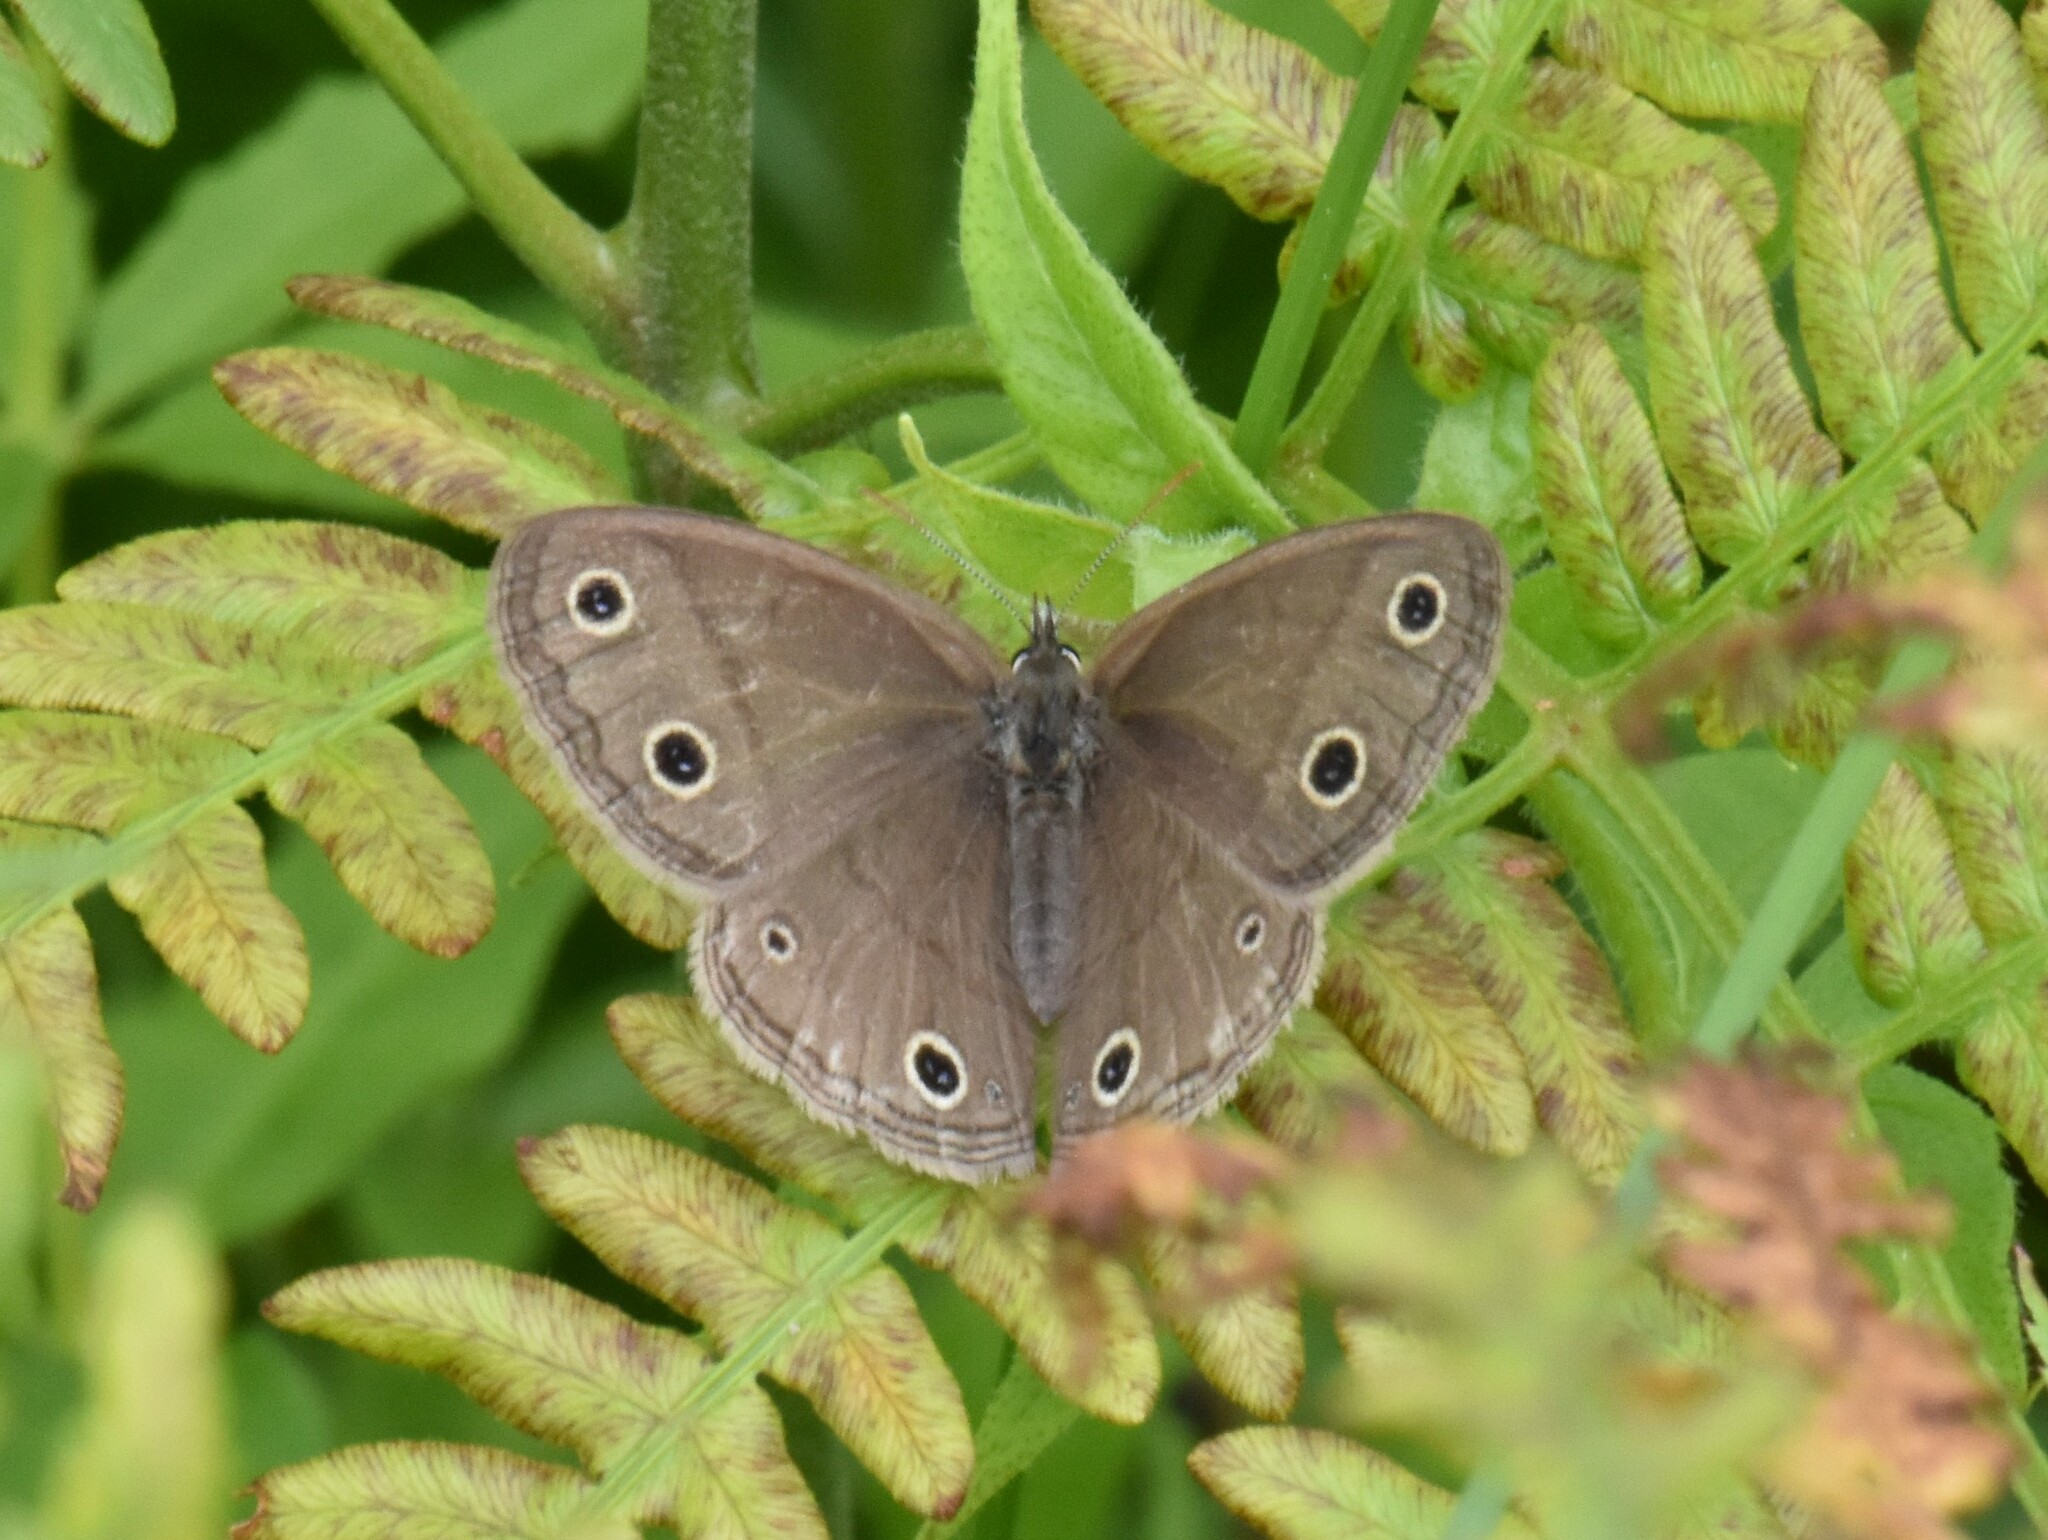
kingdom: Animalia
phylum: Arthropoda
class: Insecta
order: Lepidoptera
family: Nymphalidae
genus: Euptychia
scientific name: Euptychia cymela
